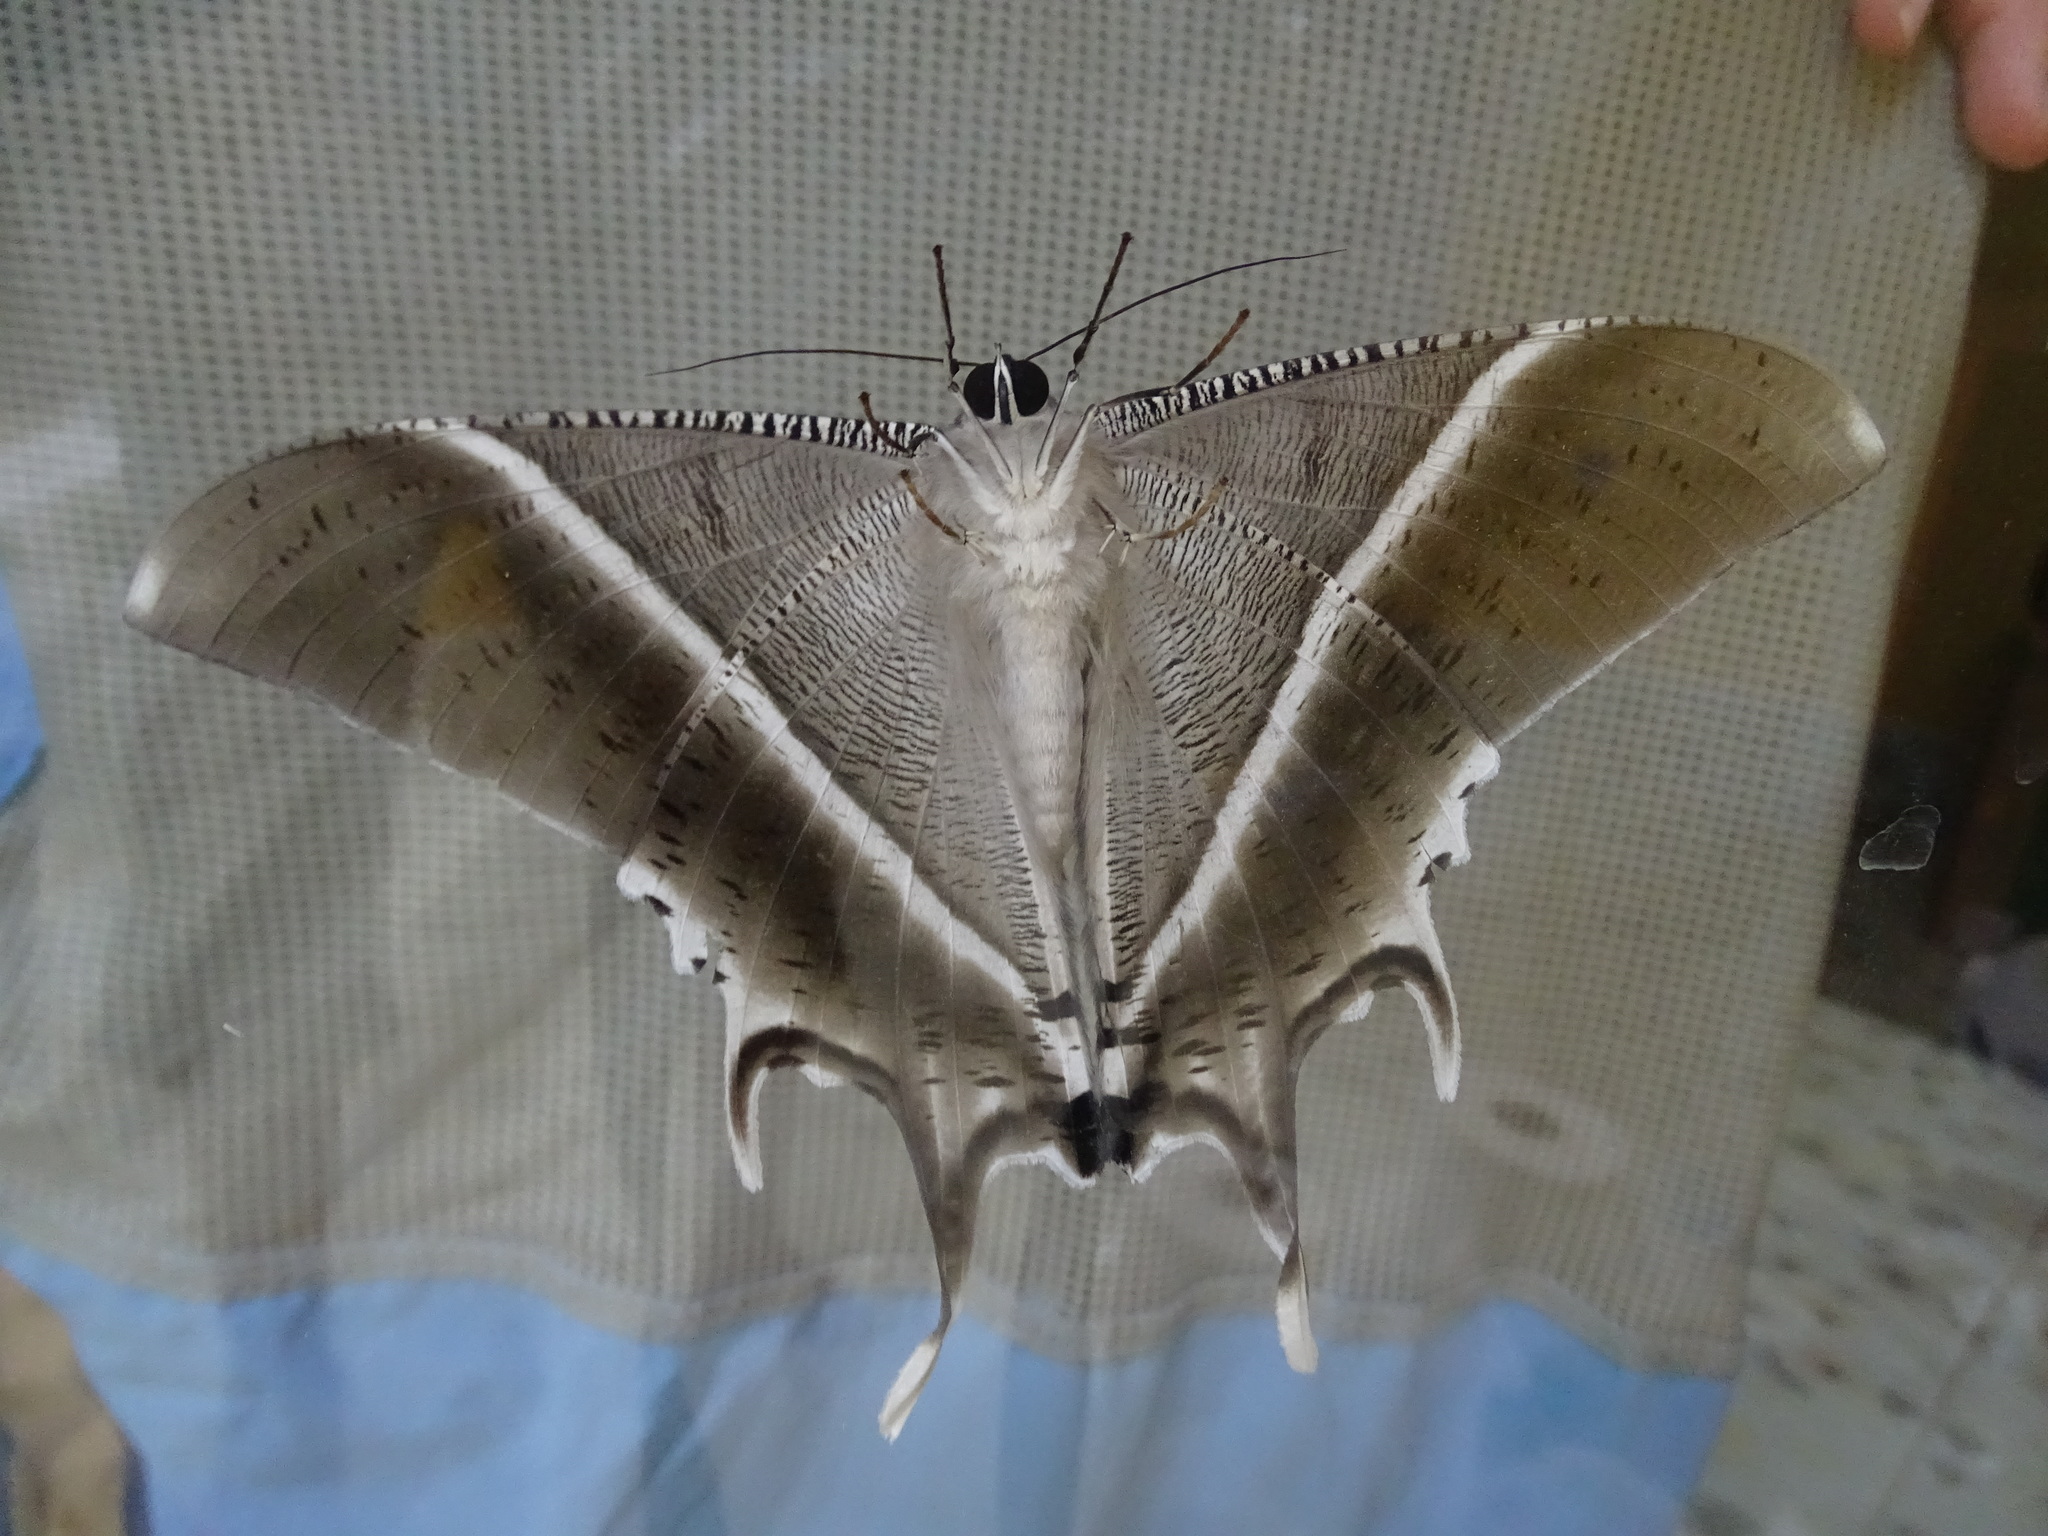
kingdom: Animalia
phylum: Arthropoda
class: Insecta
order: Lepidoptera
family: Uraniidae
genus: Lyssa
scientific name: Lyssa zampa
